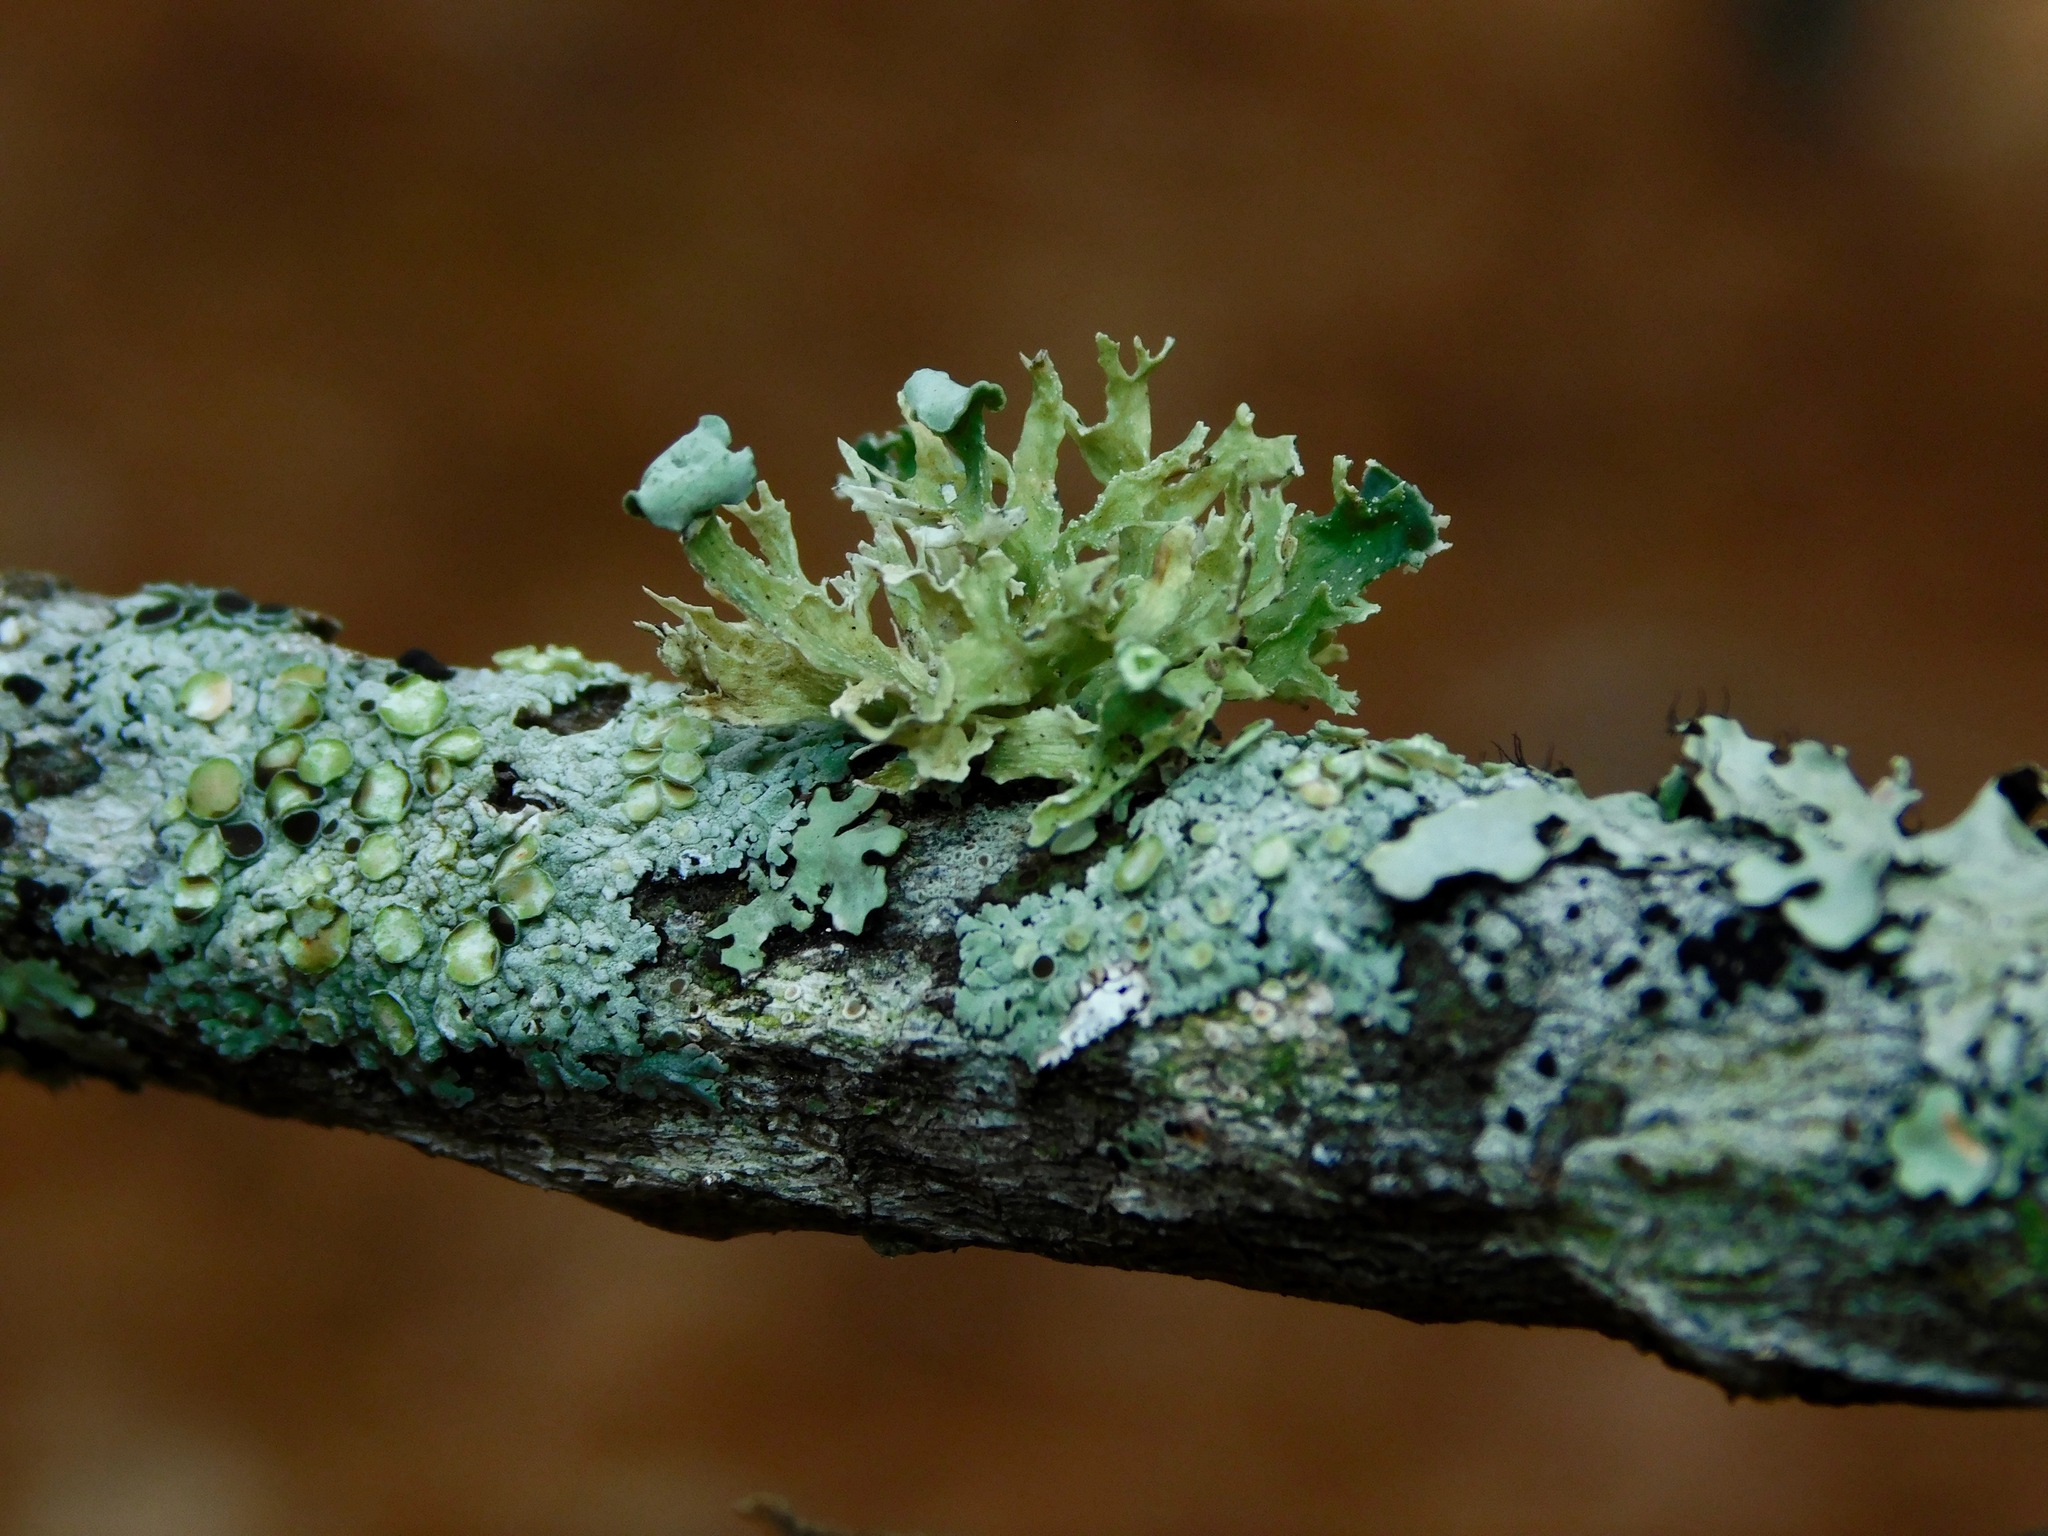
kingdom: Fungi
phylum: Ascomycota
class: Lecanoromycetes
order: Lecanorales
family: Ramalinaceae
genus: Ramalina
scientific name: Ramalina americana
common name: Sinewed bush lichen
